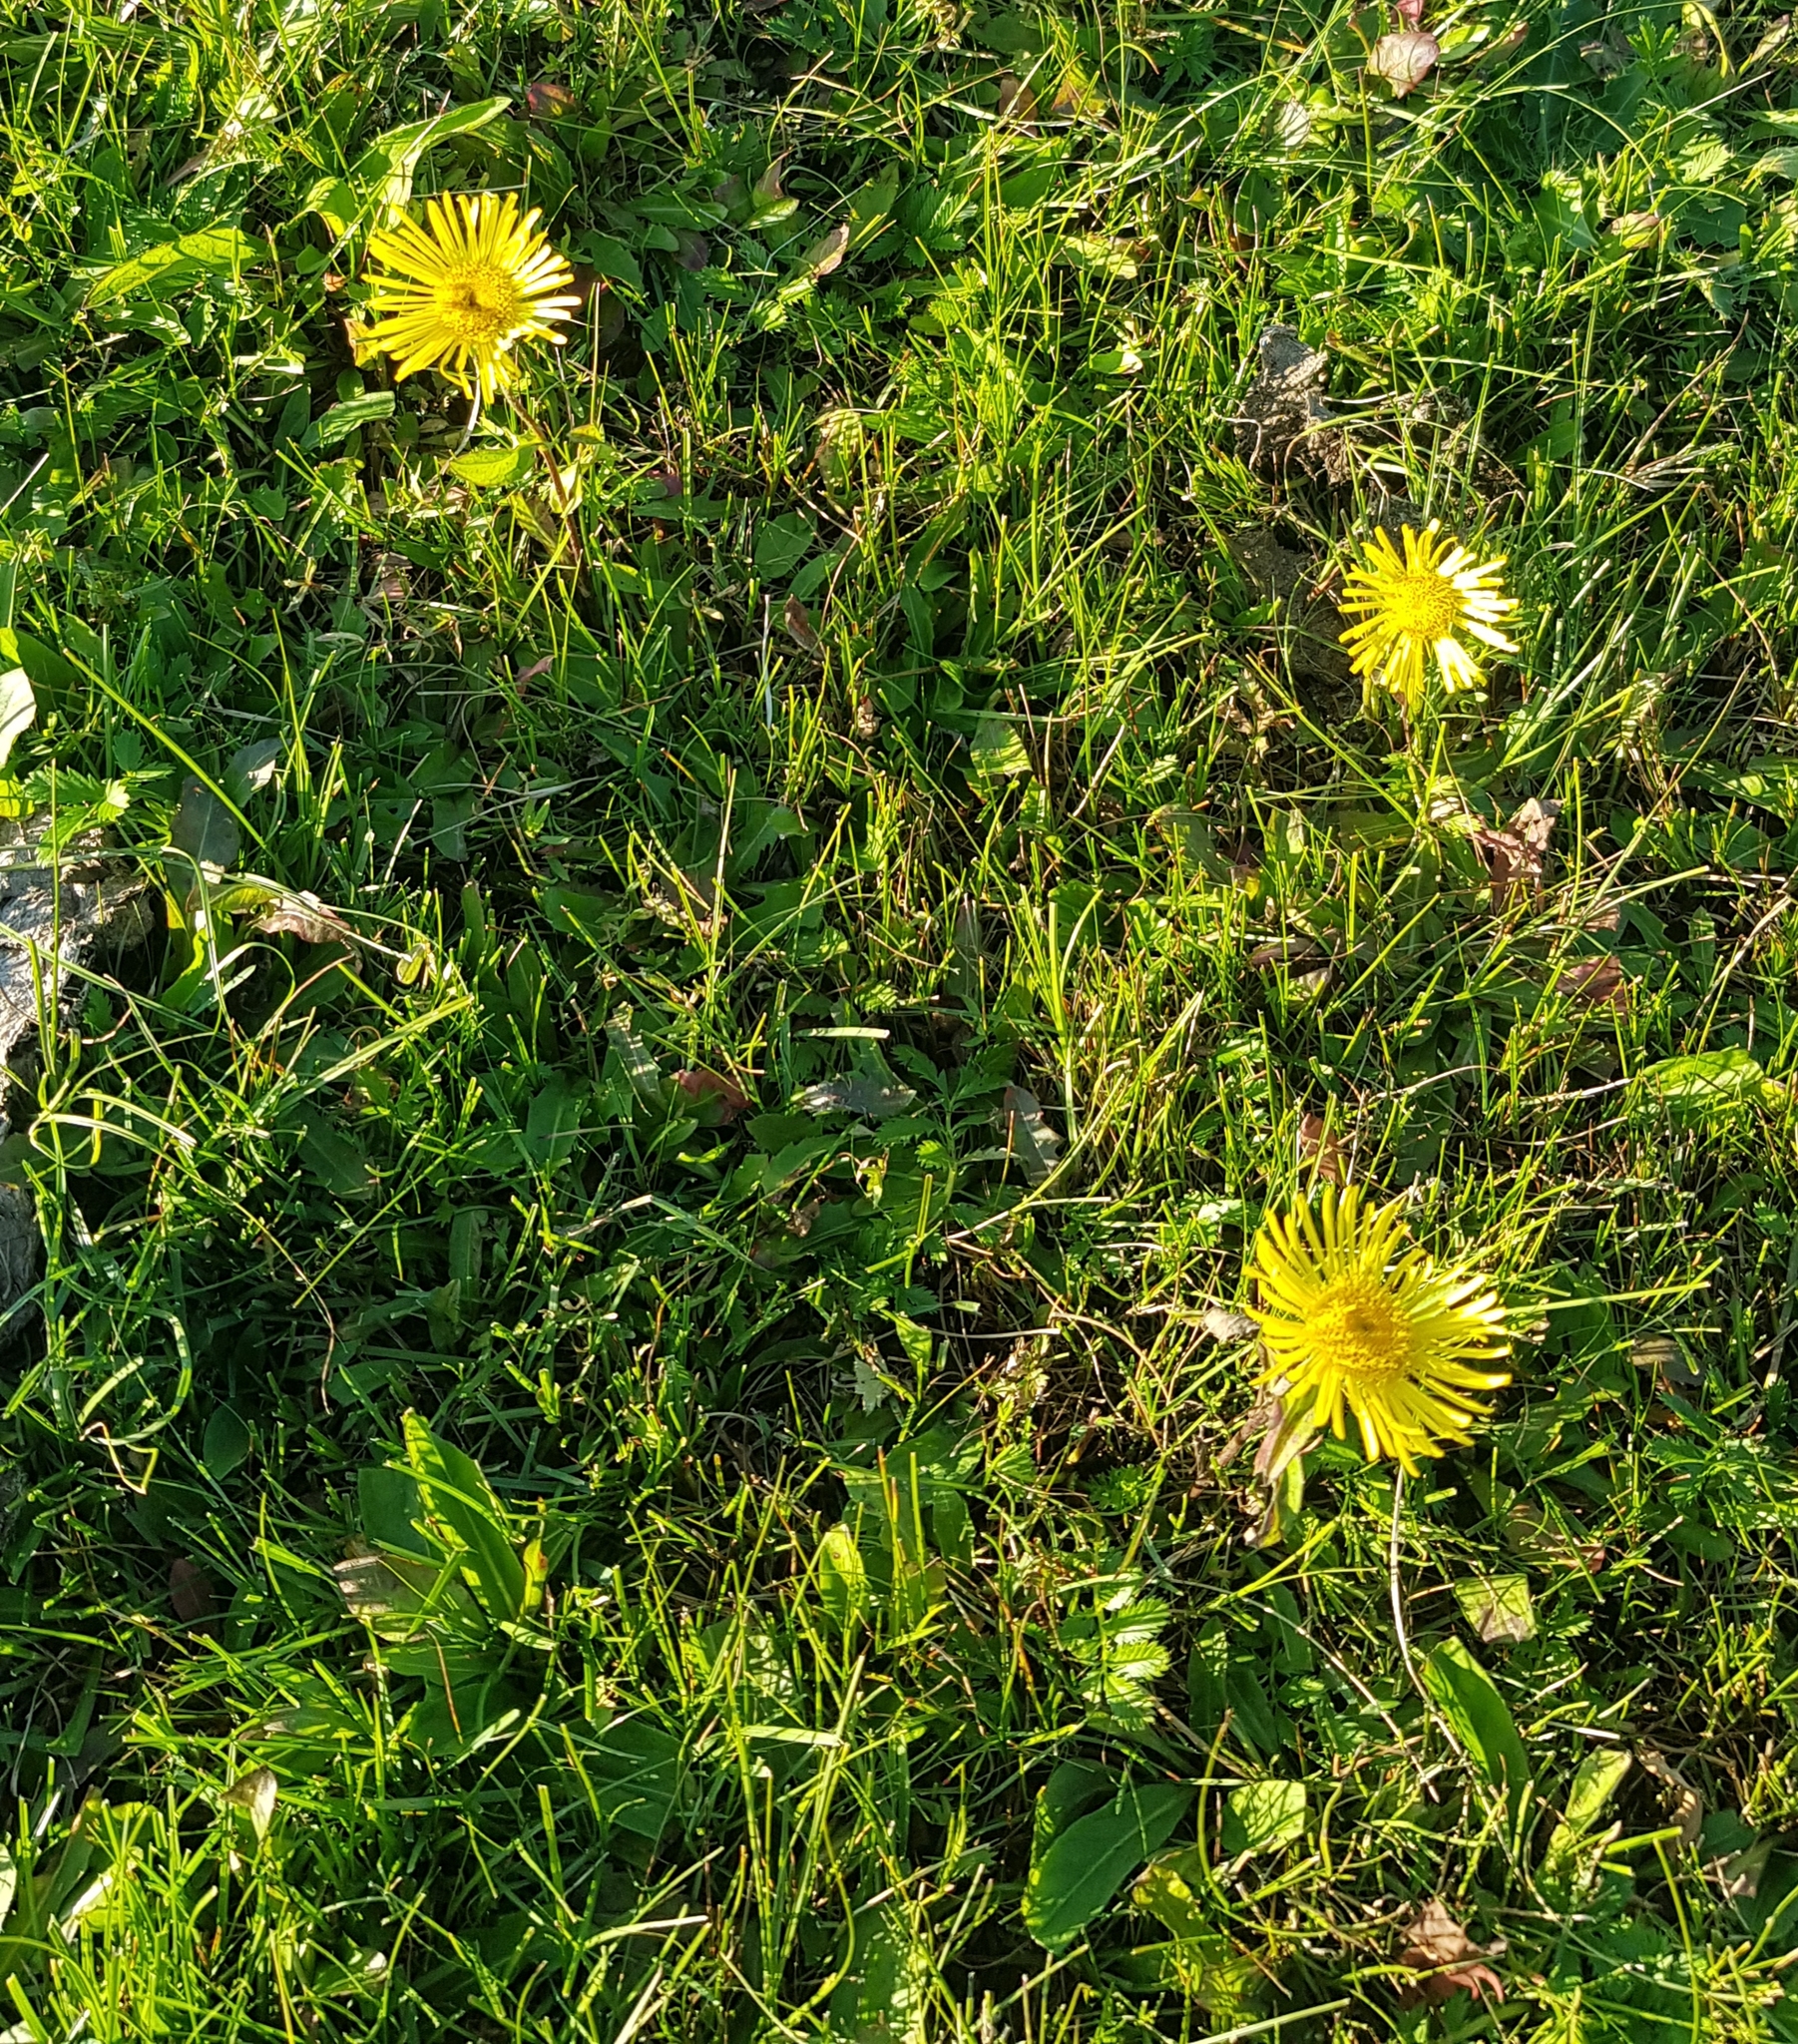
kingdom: Plantae
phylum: Tracheophyta
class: Magnoliopsida
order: Asterales
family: Asteraceae
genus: Pentanema
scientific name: Pentanema britannicum
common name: British elecampane
